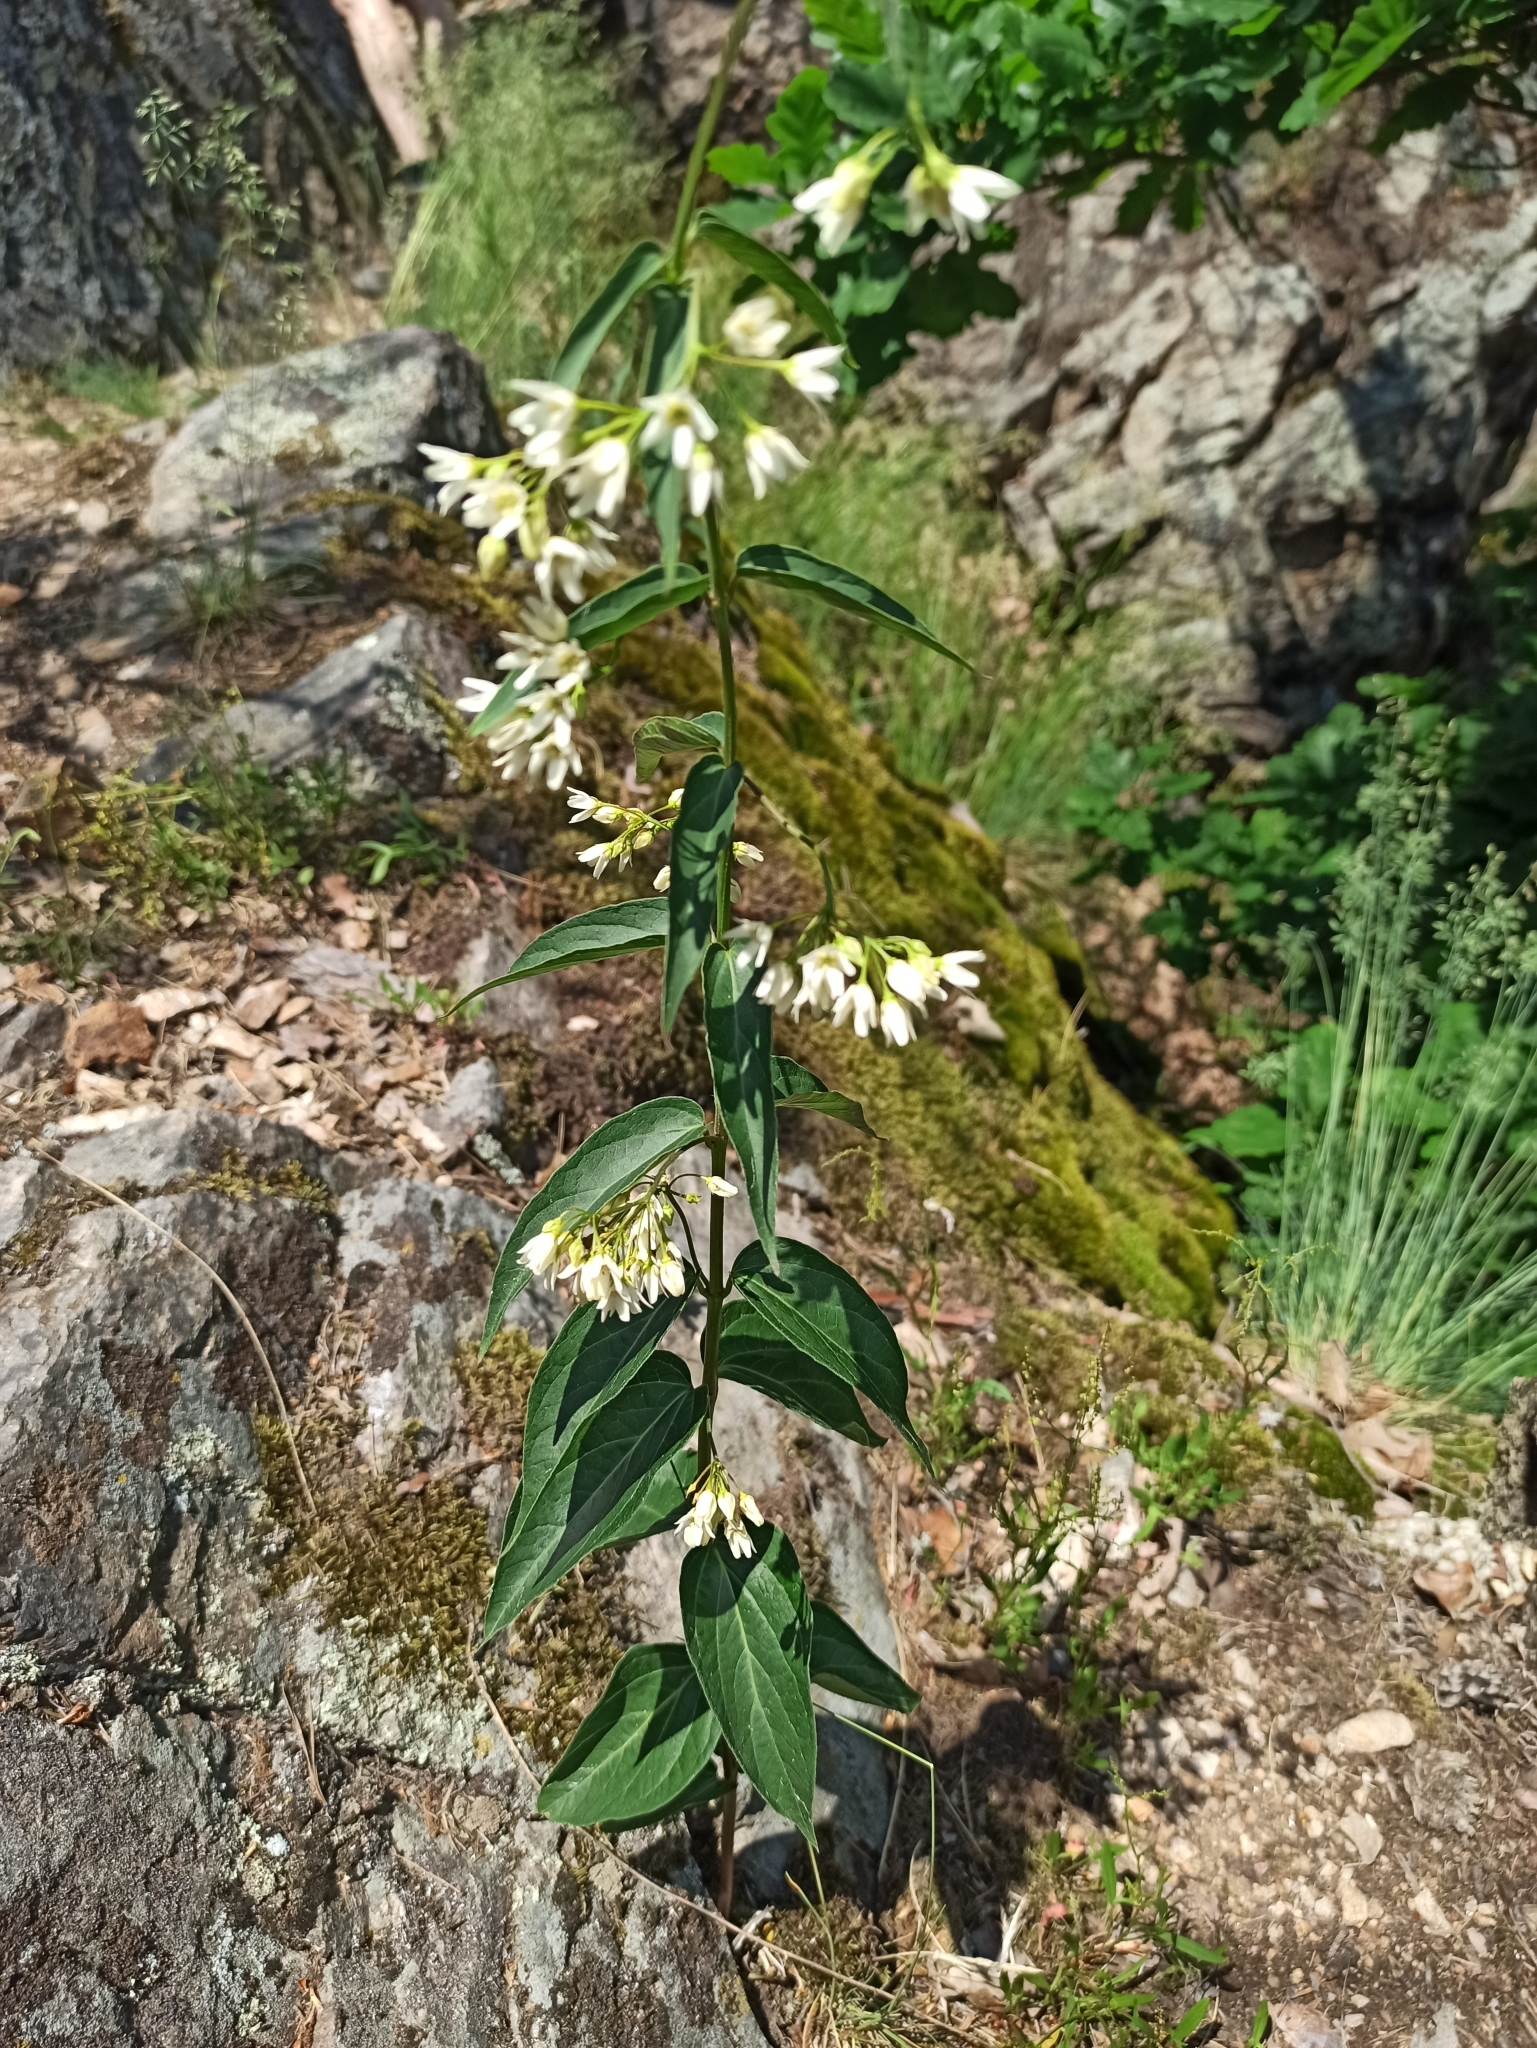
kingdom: Plantae
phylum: Tracheophyta
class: Magnoliopsida
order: Gentianales
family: Apocynaceae
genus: Vincetoxicum
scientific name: Vincetoxicum hirundinaria
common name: White swallowwort
